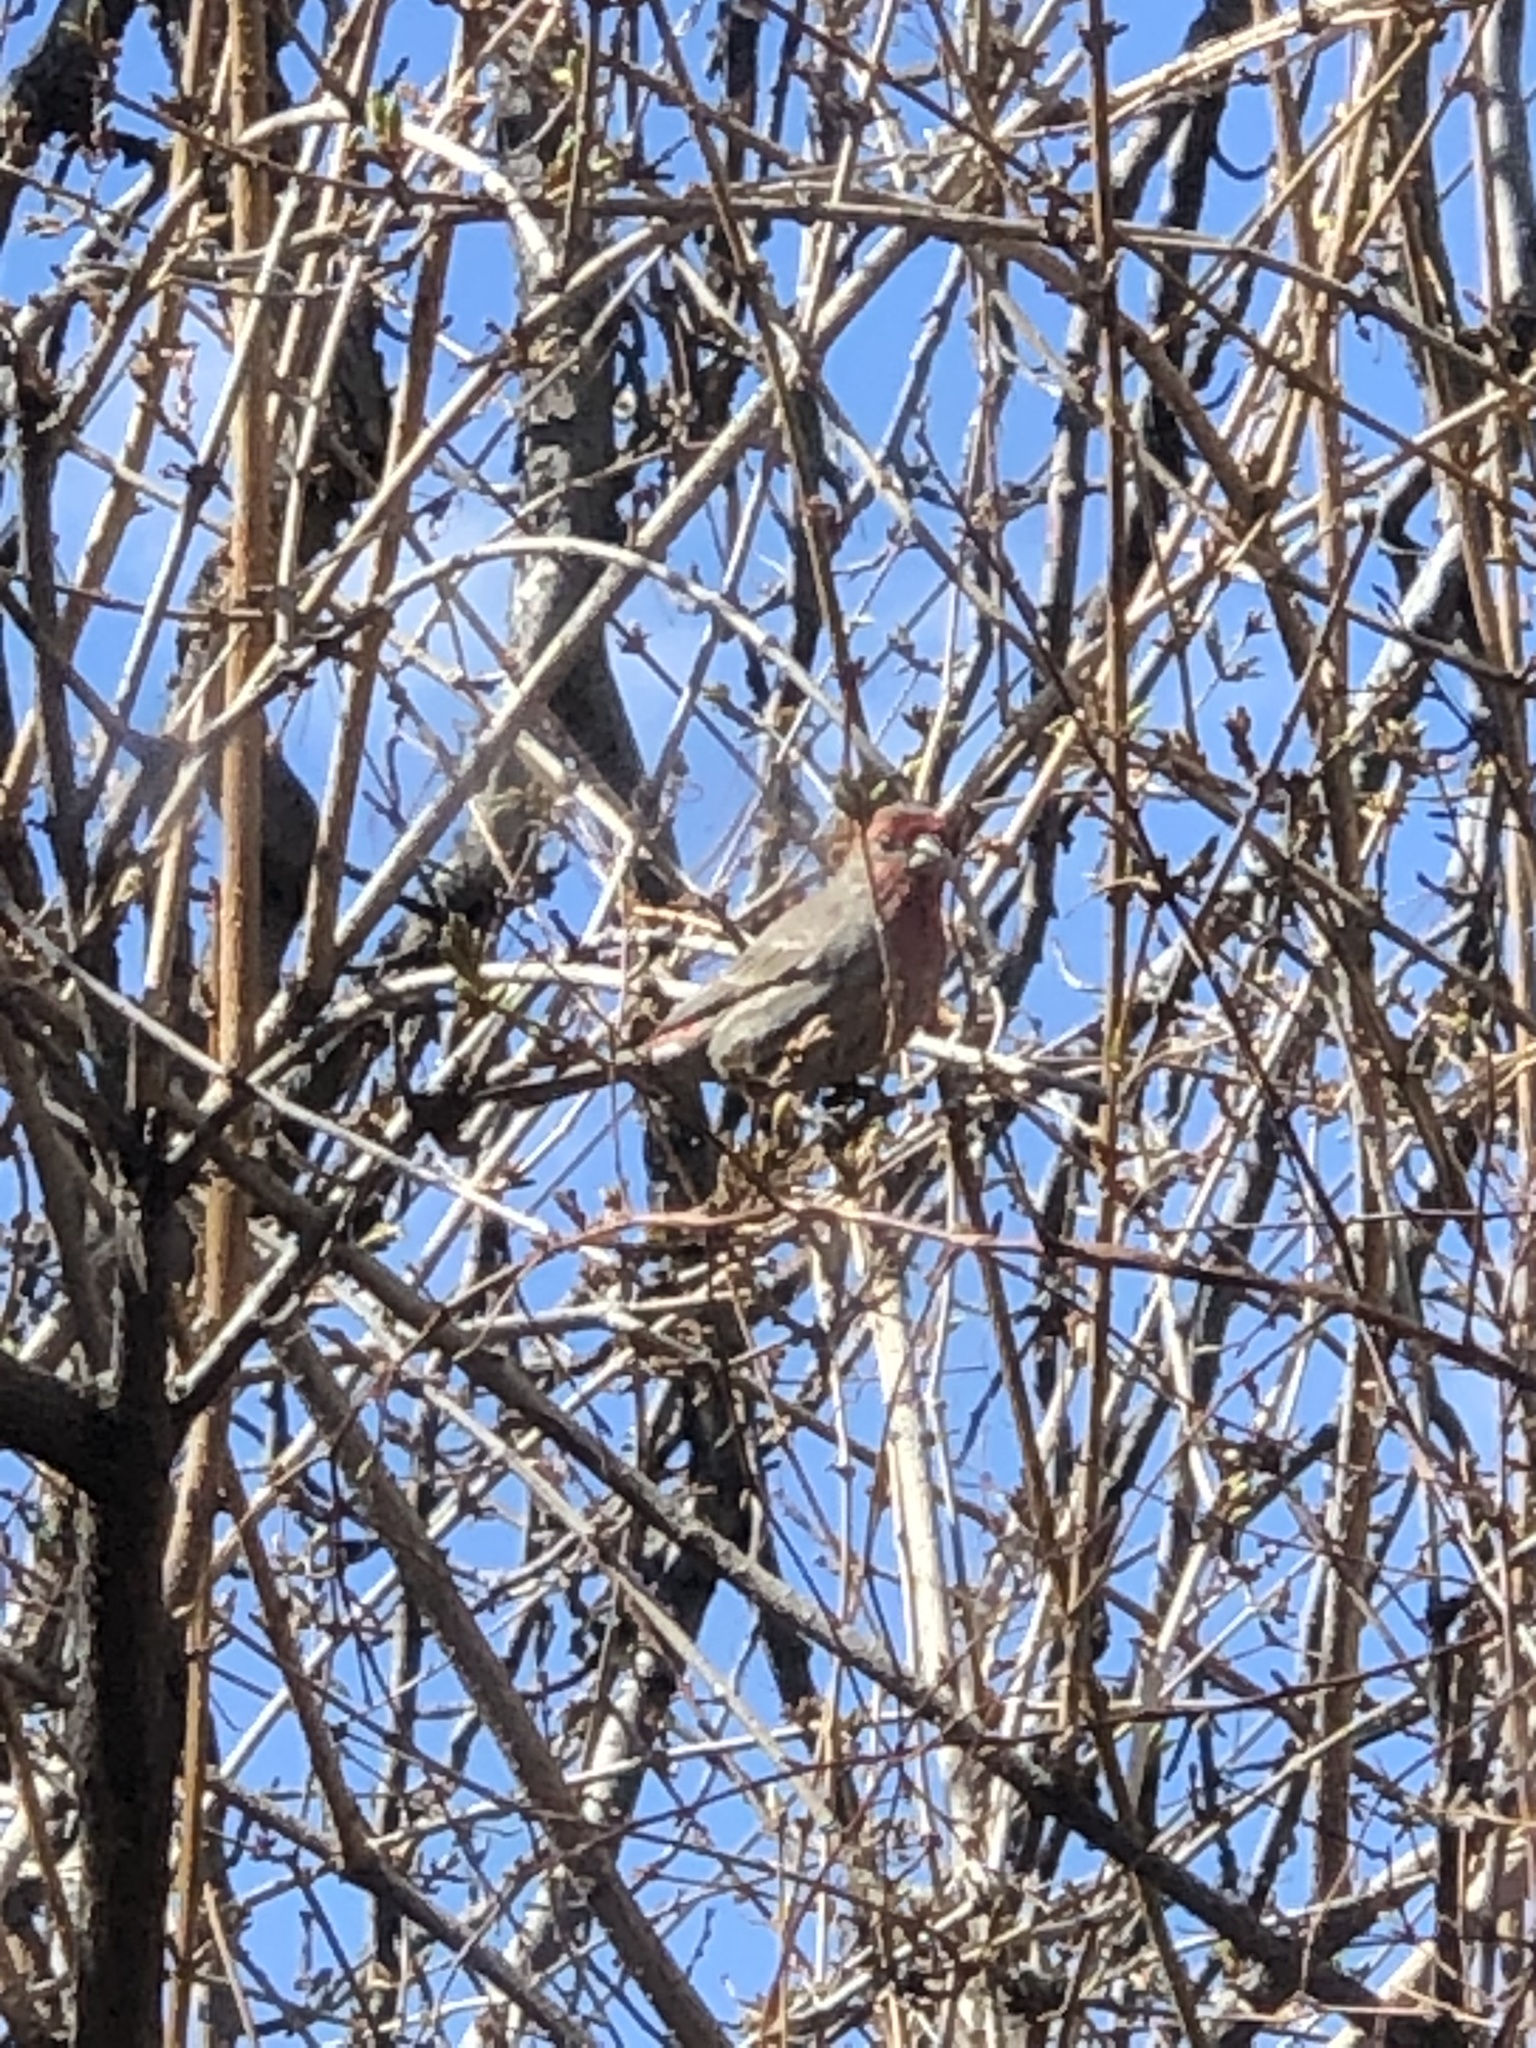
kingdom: Animalia
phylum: Chordata
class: Aves
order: Passeriformes
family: Fringillidae
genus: Haemorhous
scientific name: Haemorhous mexicanus
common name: House finch
